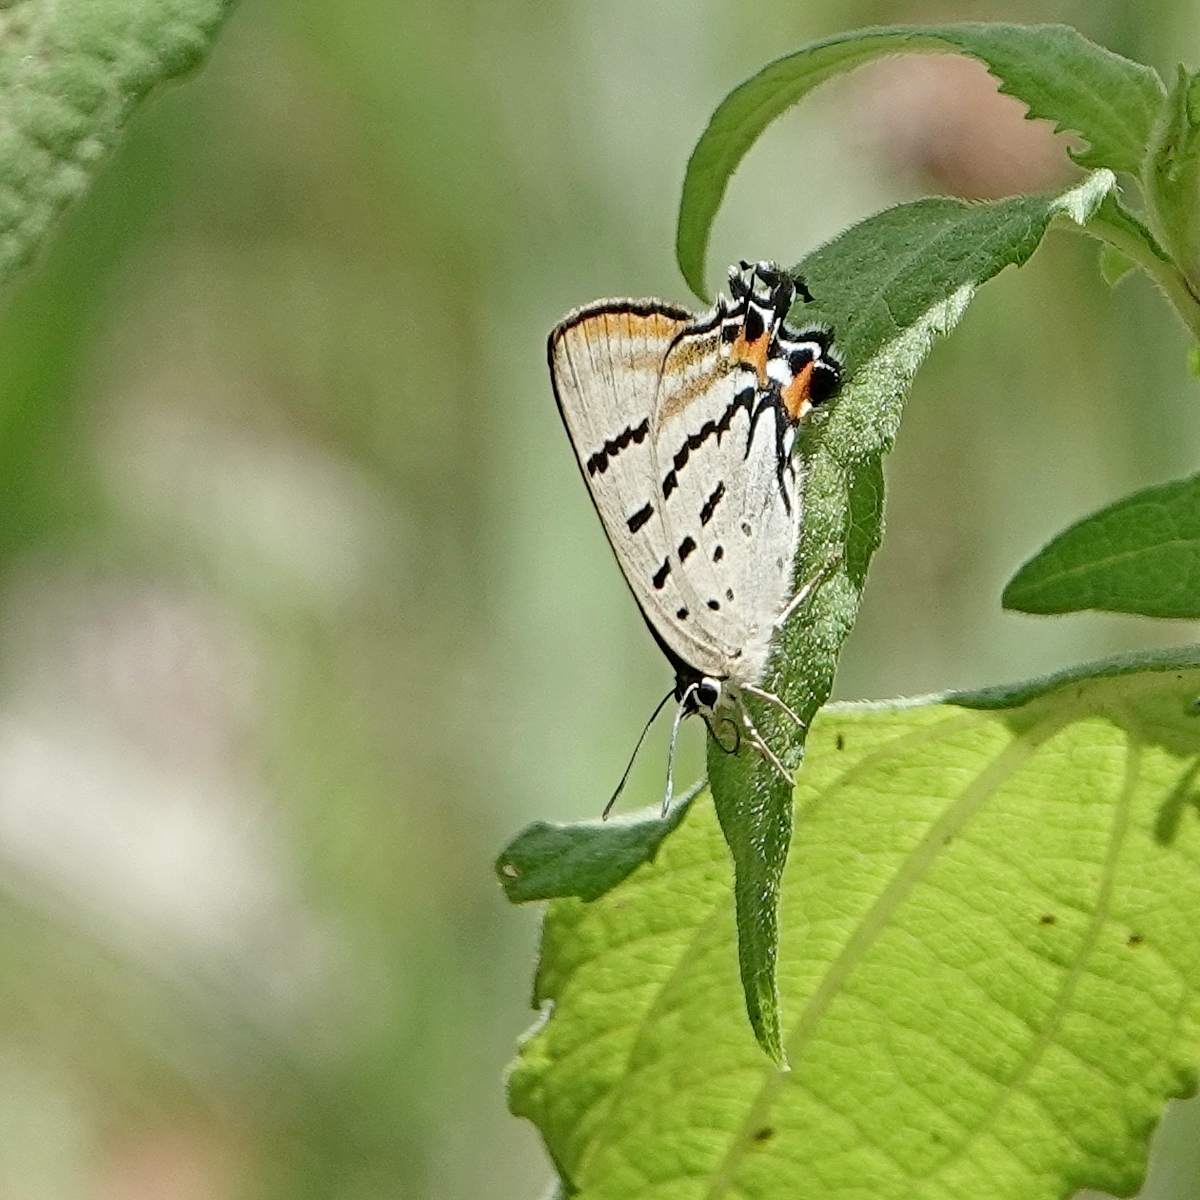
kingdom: Animalia
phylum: Arthropoda
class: Insecta
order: Lepidoptera
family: Lycaenidae
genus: Jalmenus
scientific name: Jalmenus evagoras
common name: Common imperial blue
